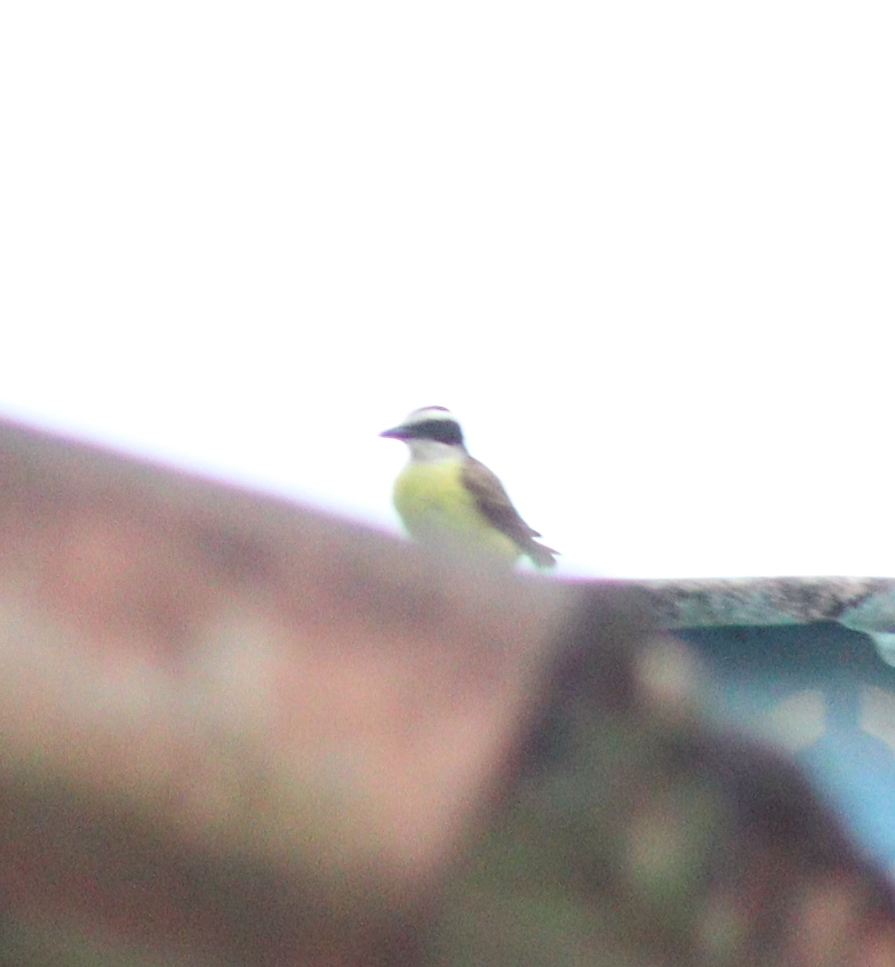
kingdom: Animalia
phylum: Chordata
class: Aves
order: Passeriformes
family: Tyrannidae
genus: Pitangus
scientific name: Pitangus sulphuratus
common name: Great kiskadee
